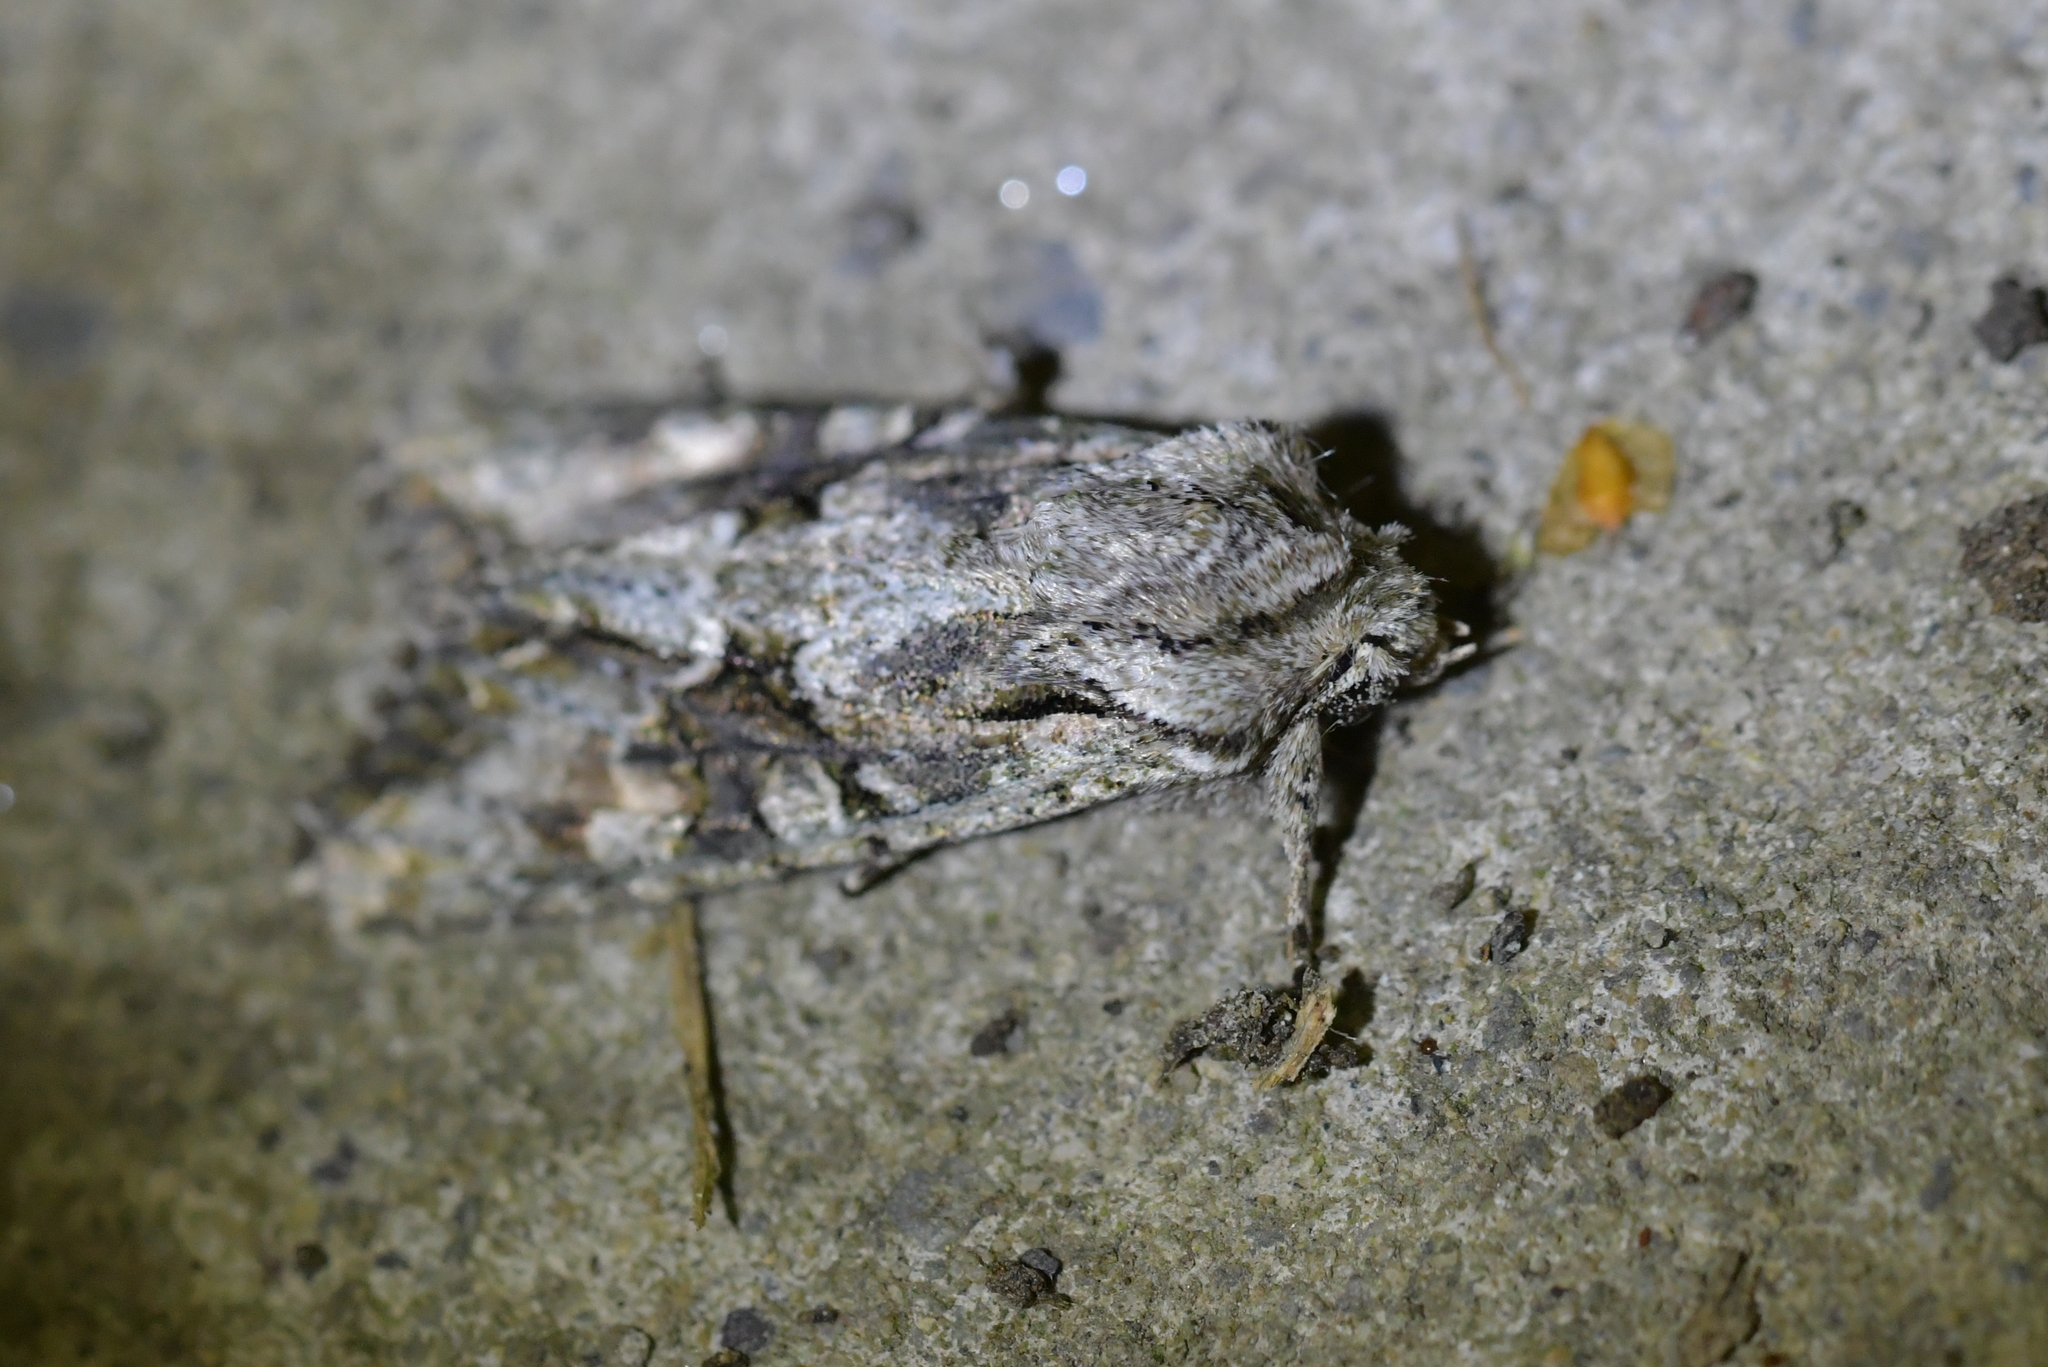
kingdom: Animalia
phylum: Arthropoda
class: Insecta
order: Lepidoptera
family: Noctuidae
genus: Ichneutica
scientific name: Ichneutica mutans
